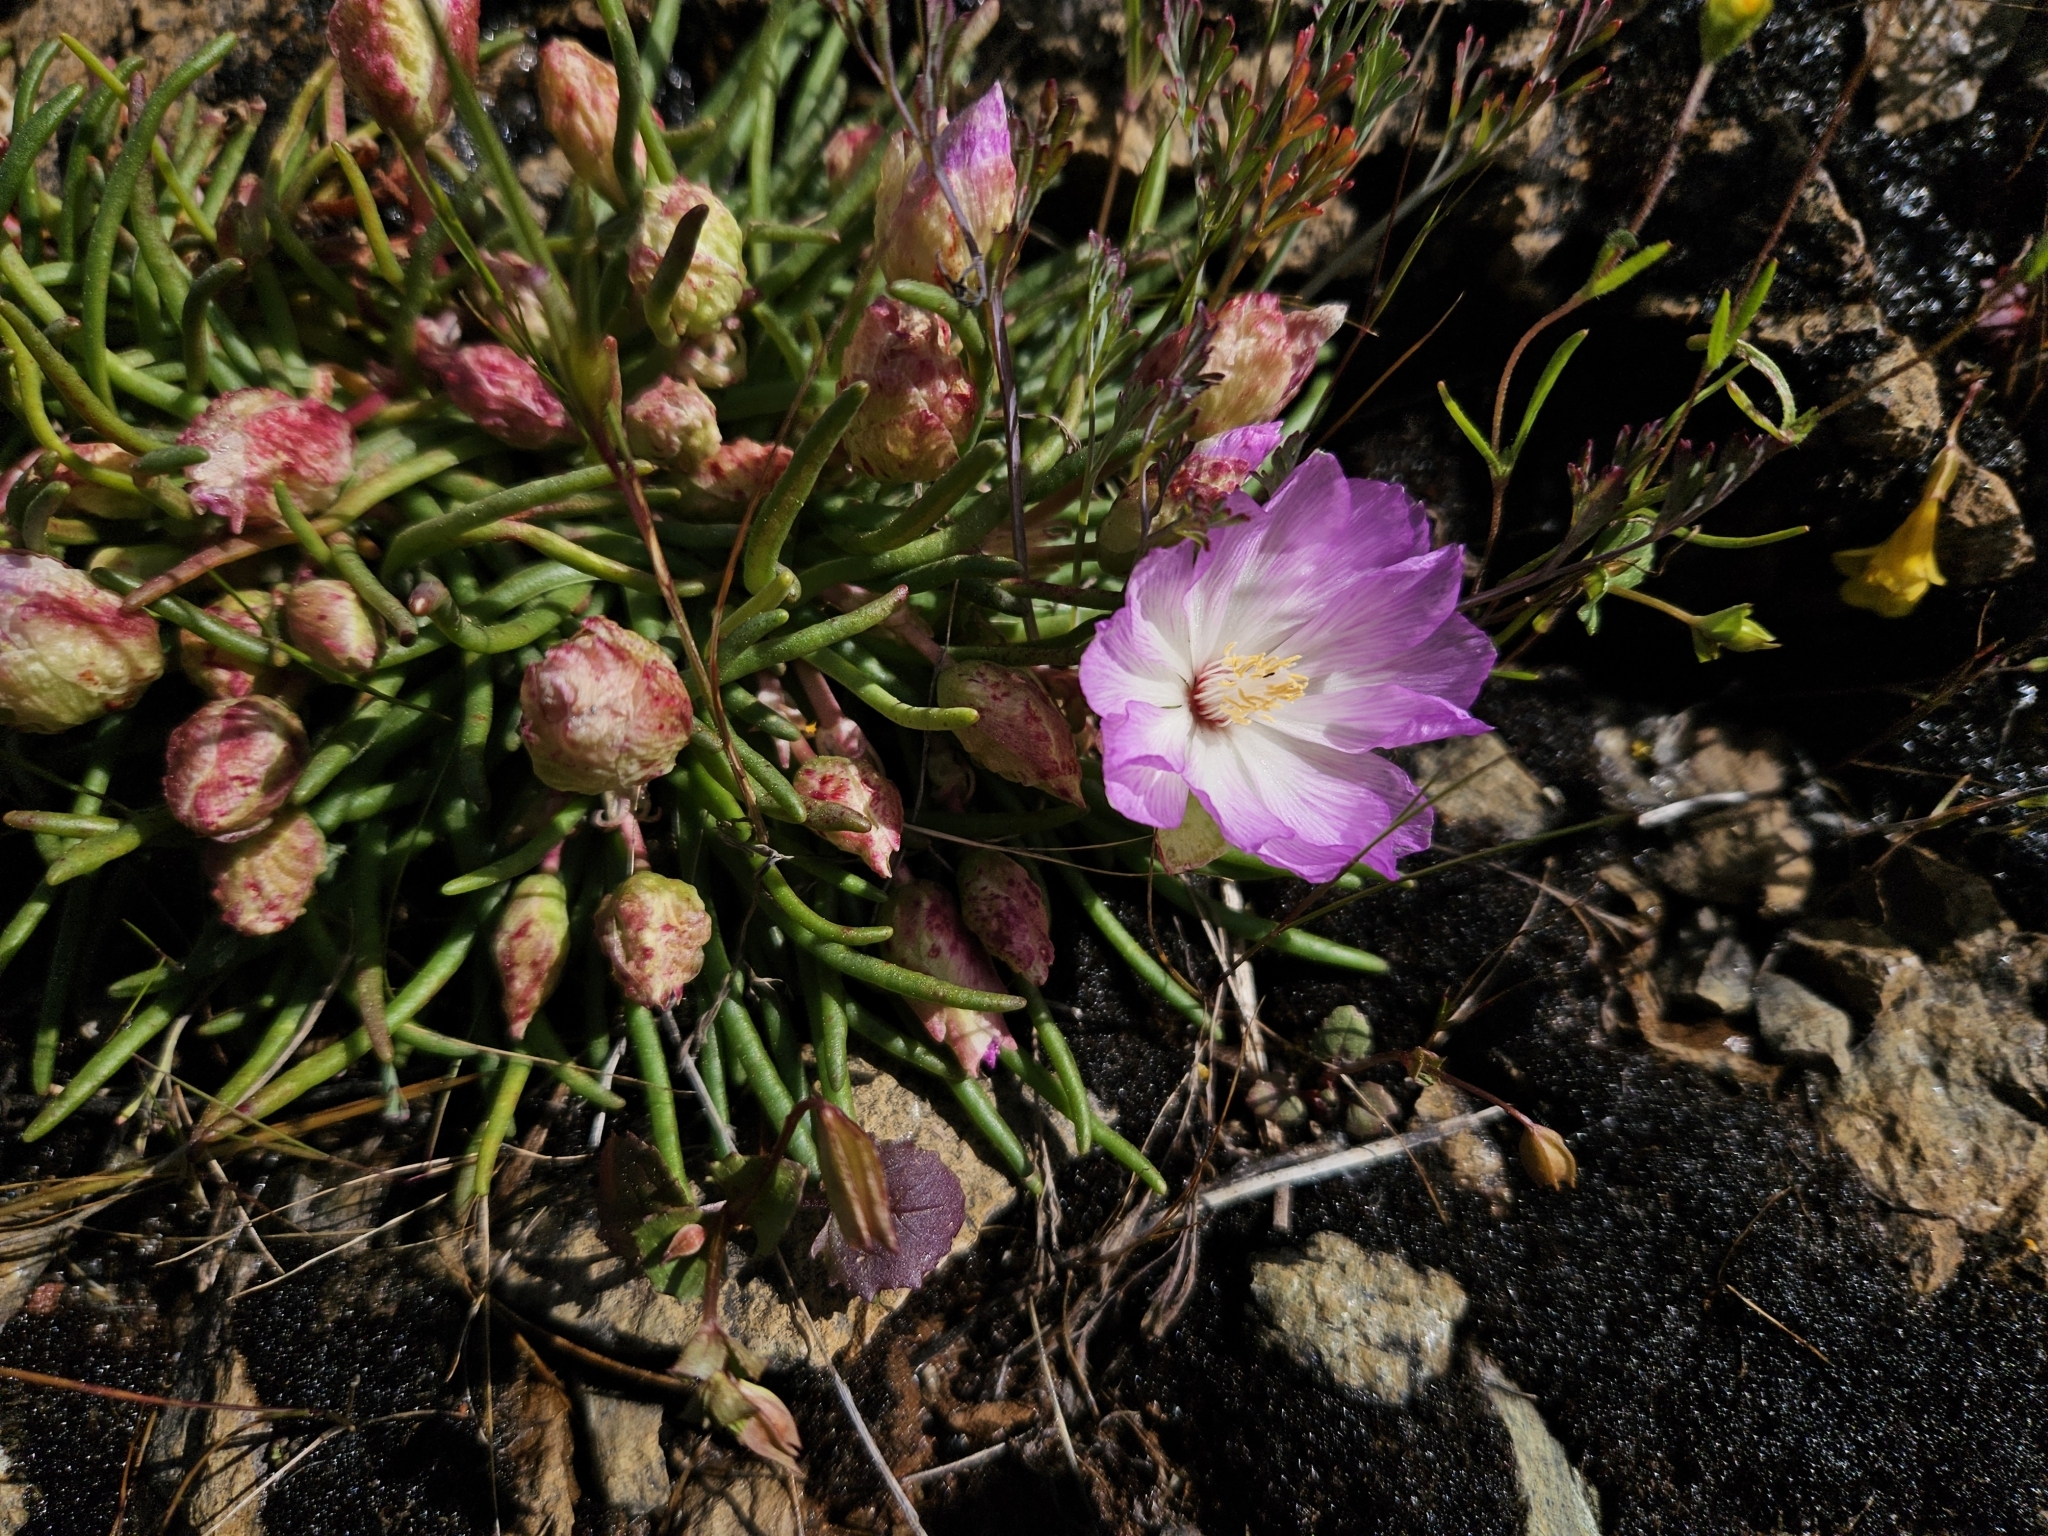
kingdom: Plantae
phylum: Tracheophyta
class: Magnoliopsida
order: Caryophyllales
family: Montiaceae
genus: Lewisia
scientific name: Lewisia rediviva
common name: Bitter-root
